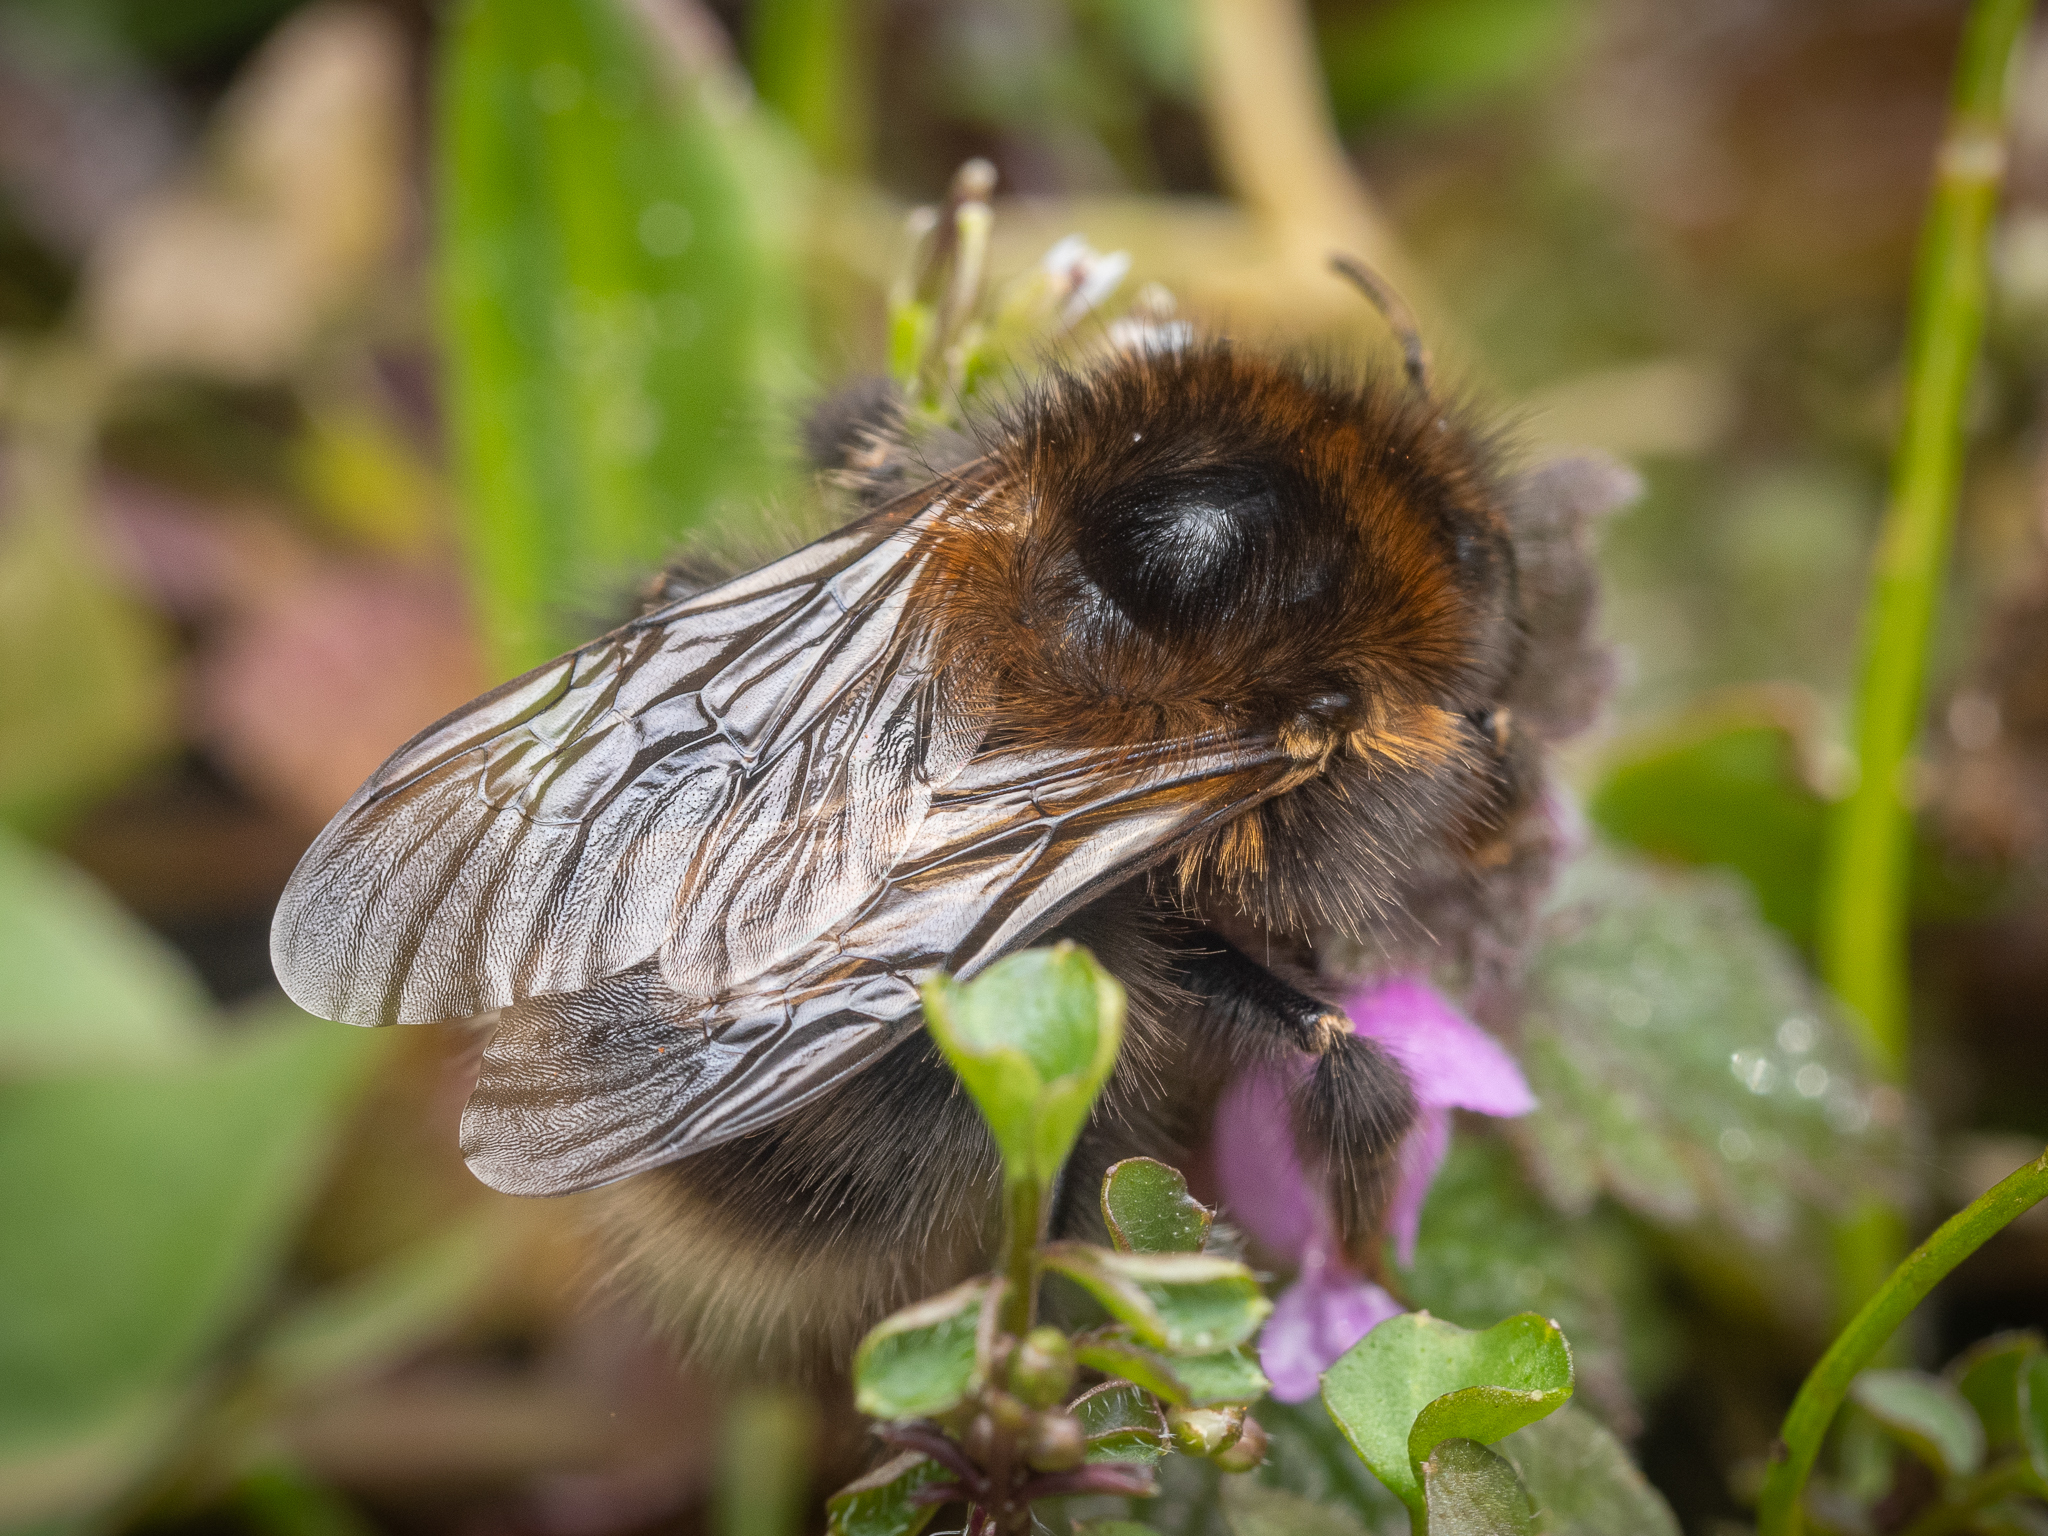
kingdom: Animalia
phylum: Arthropoda
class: Insecta
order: Hymenoptera
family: Apidae
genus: Bombus
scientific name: Bombus hypnorum
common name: New garden bumblebee
